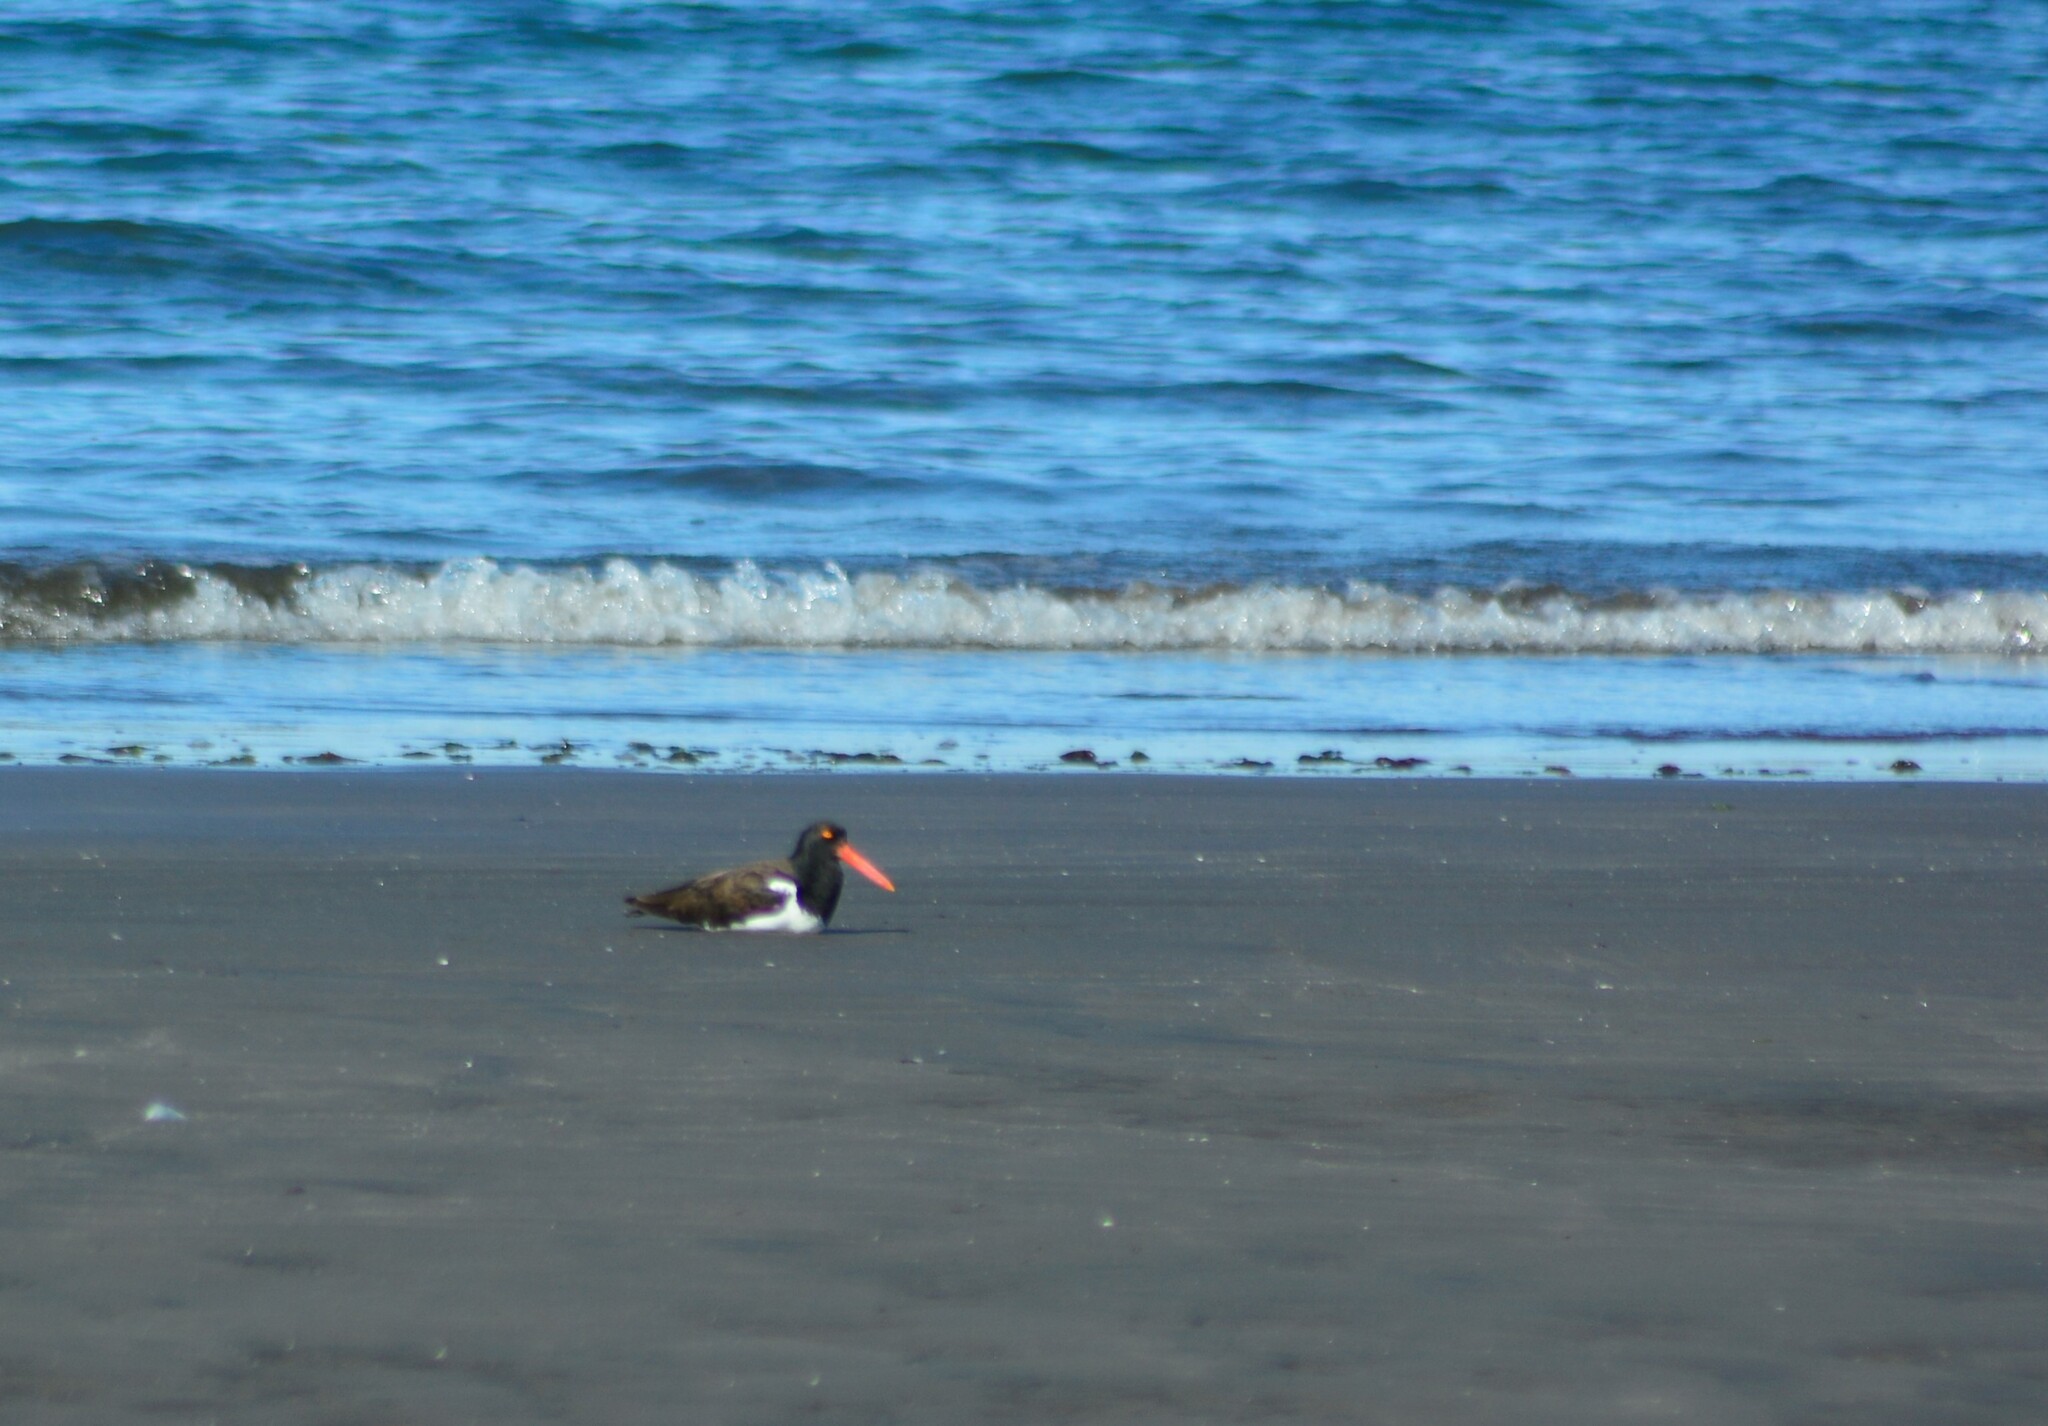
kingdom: Animalia
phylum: Chordata
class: Aves
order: Charadriiformes
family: Haematopodidae
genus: Haematopus
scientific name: Haematopus palliatus
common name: American oystercatcher
